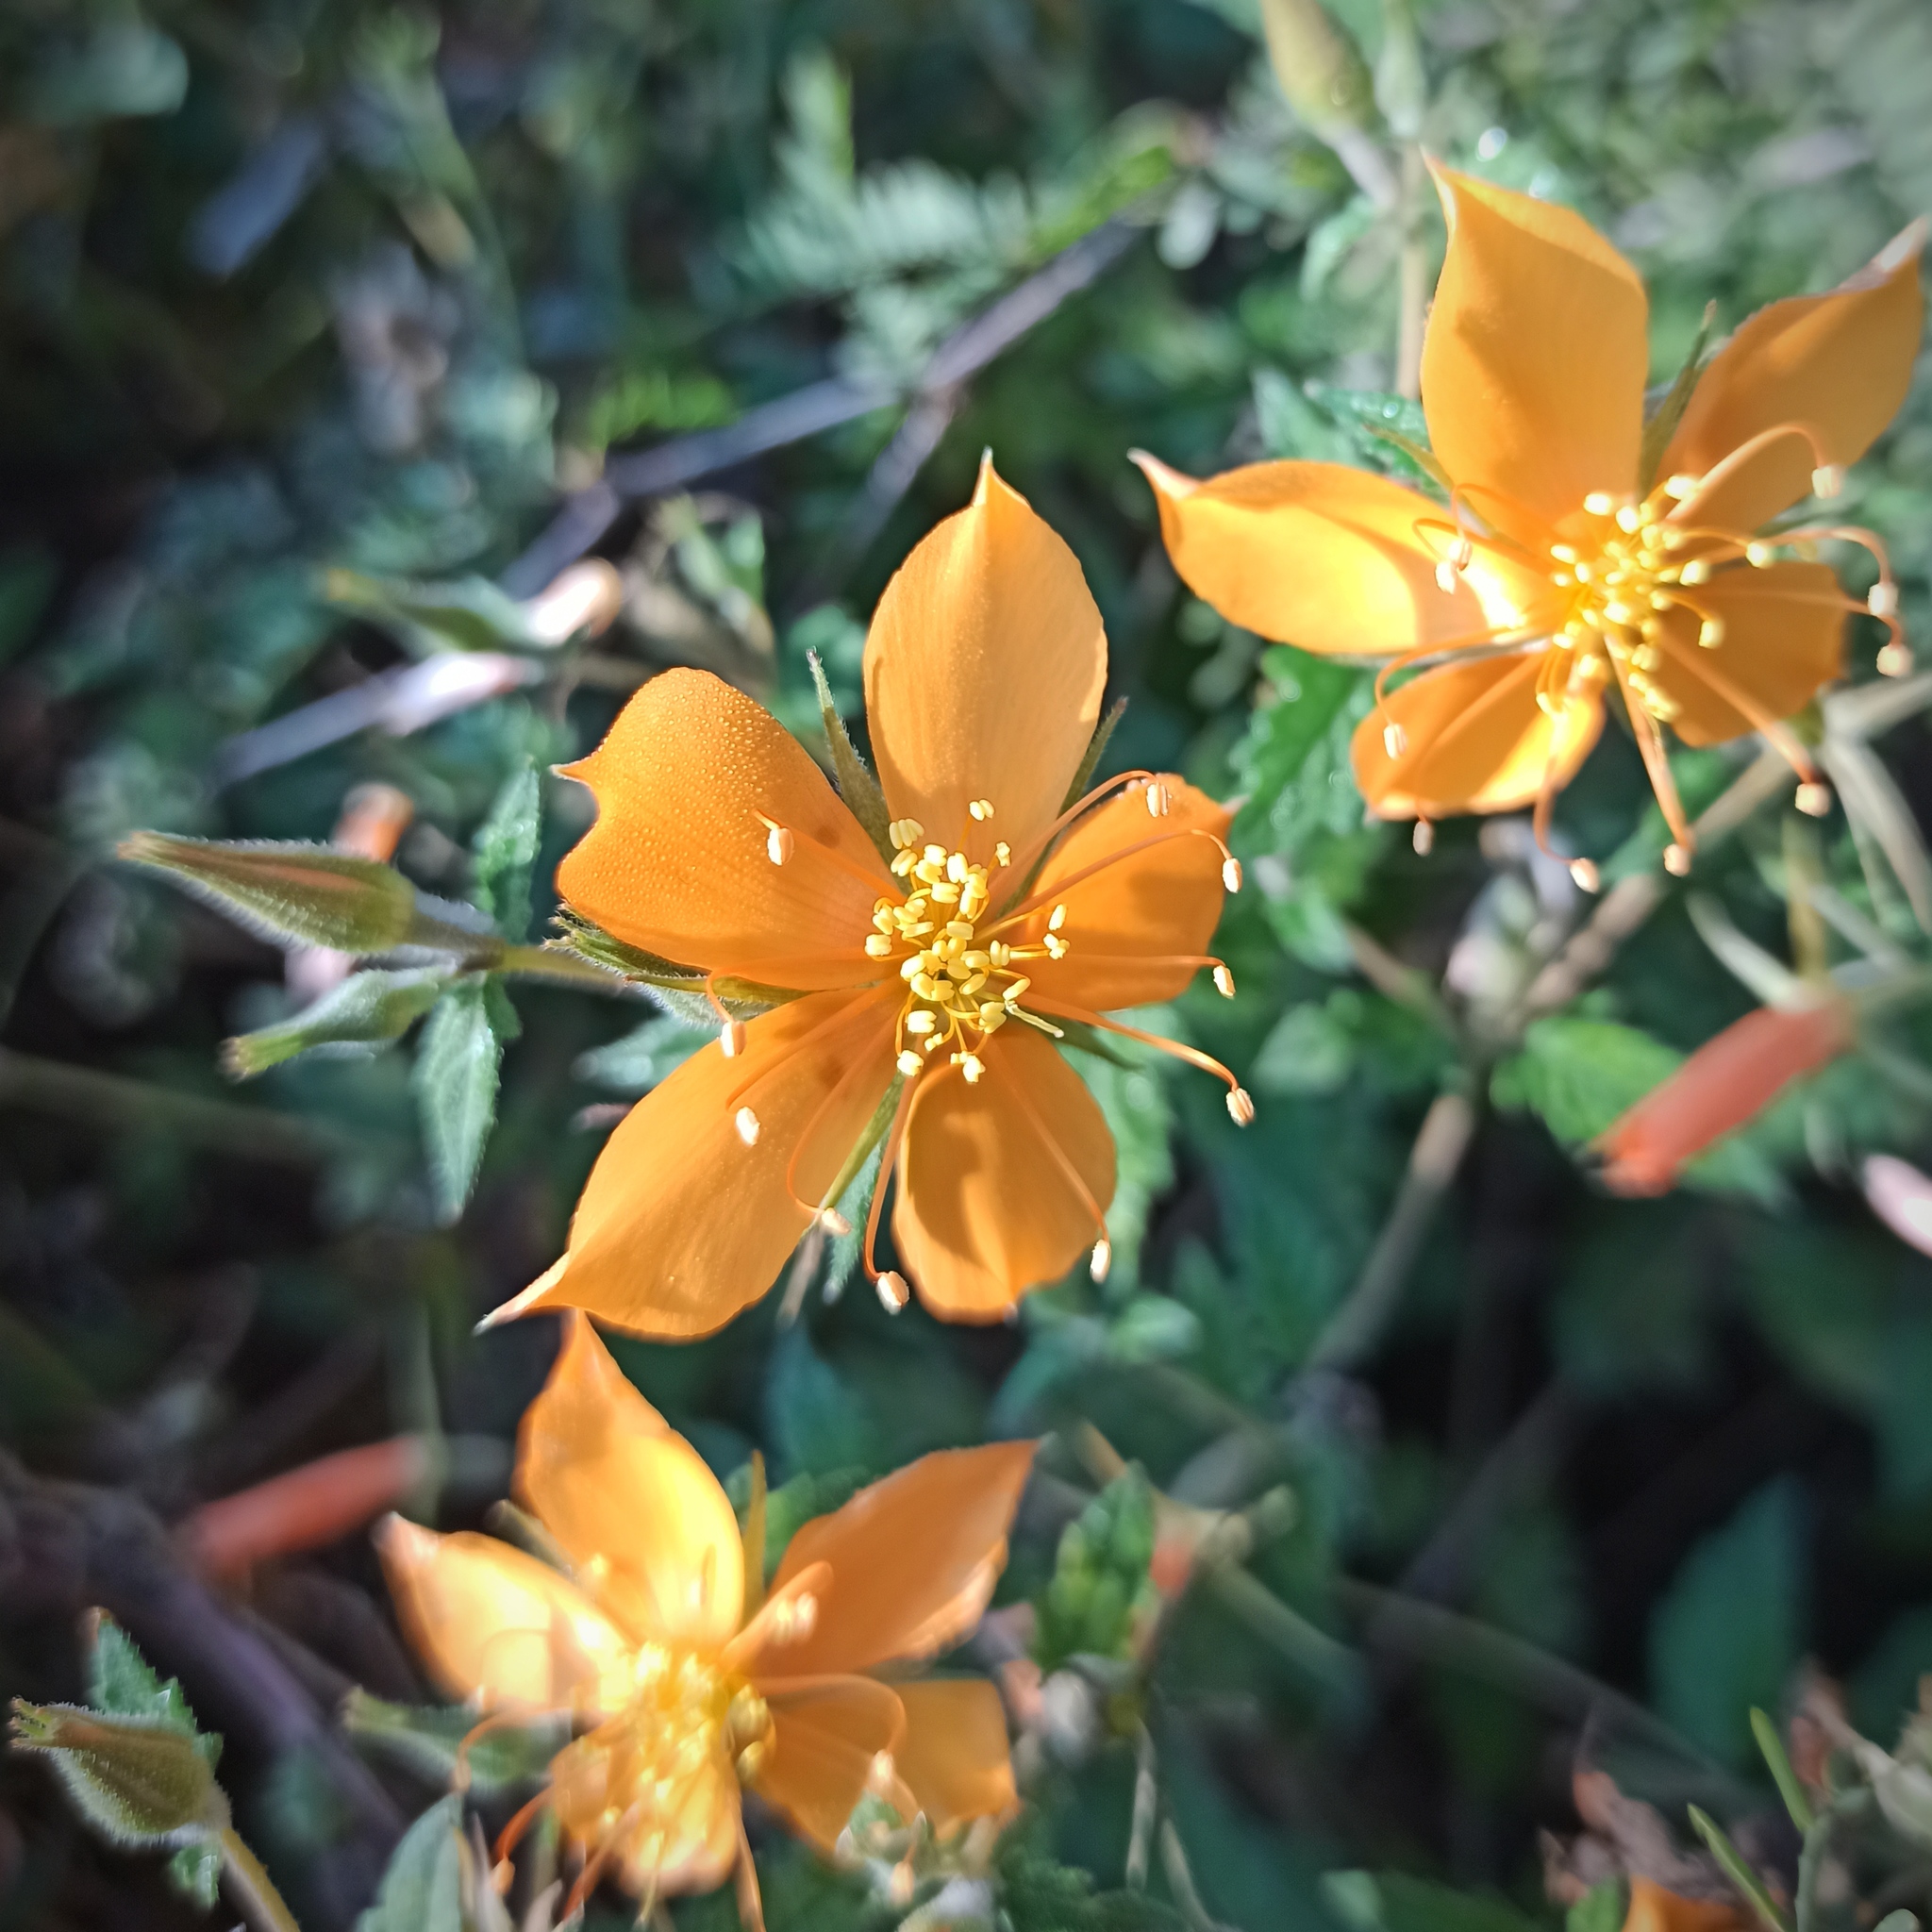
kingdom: Plantae
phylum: Tracheophyta
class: Magnoliopsida
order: Cornales
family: Loasaceae
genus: Mentzelia
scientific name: Mentzelia hispida
